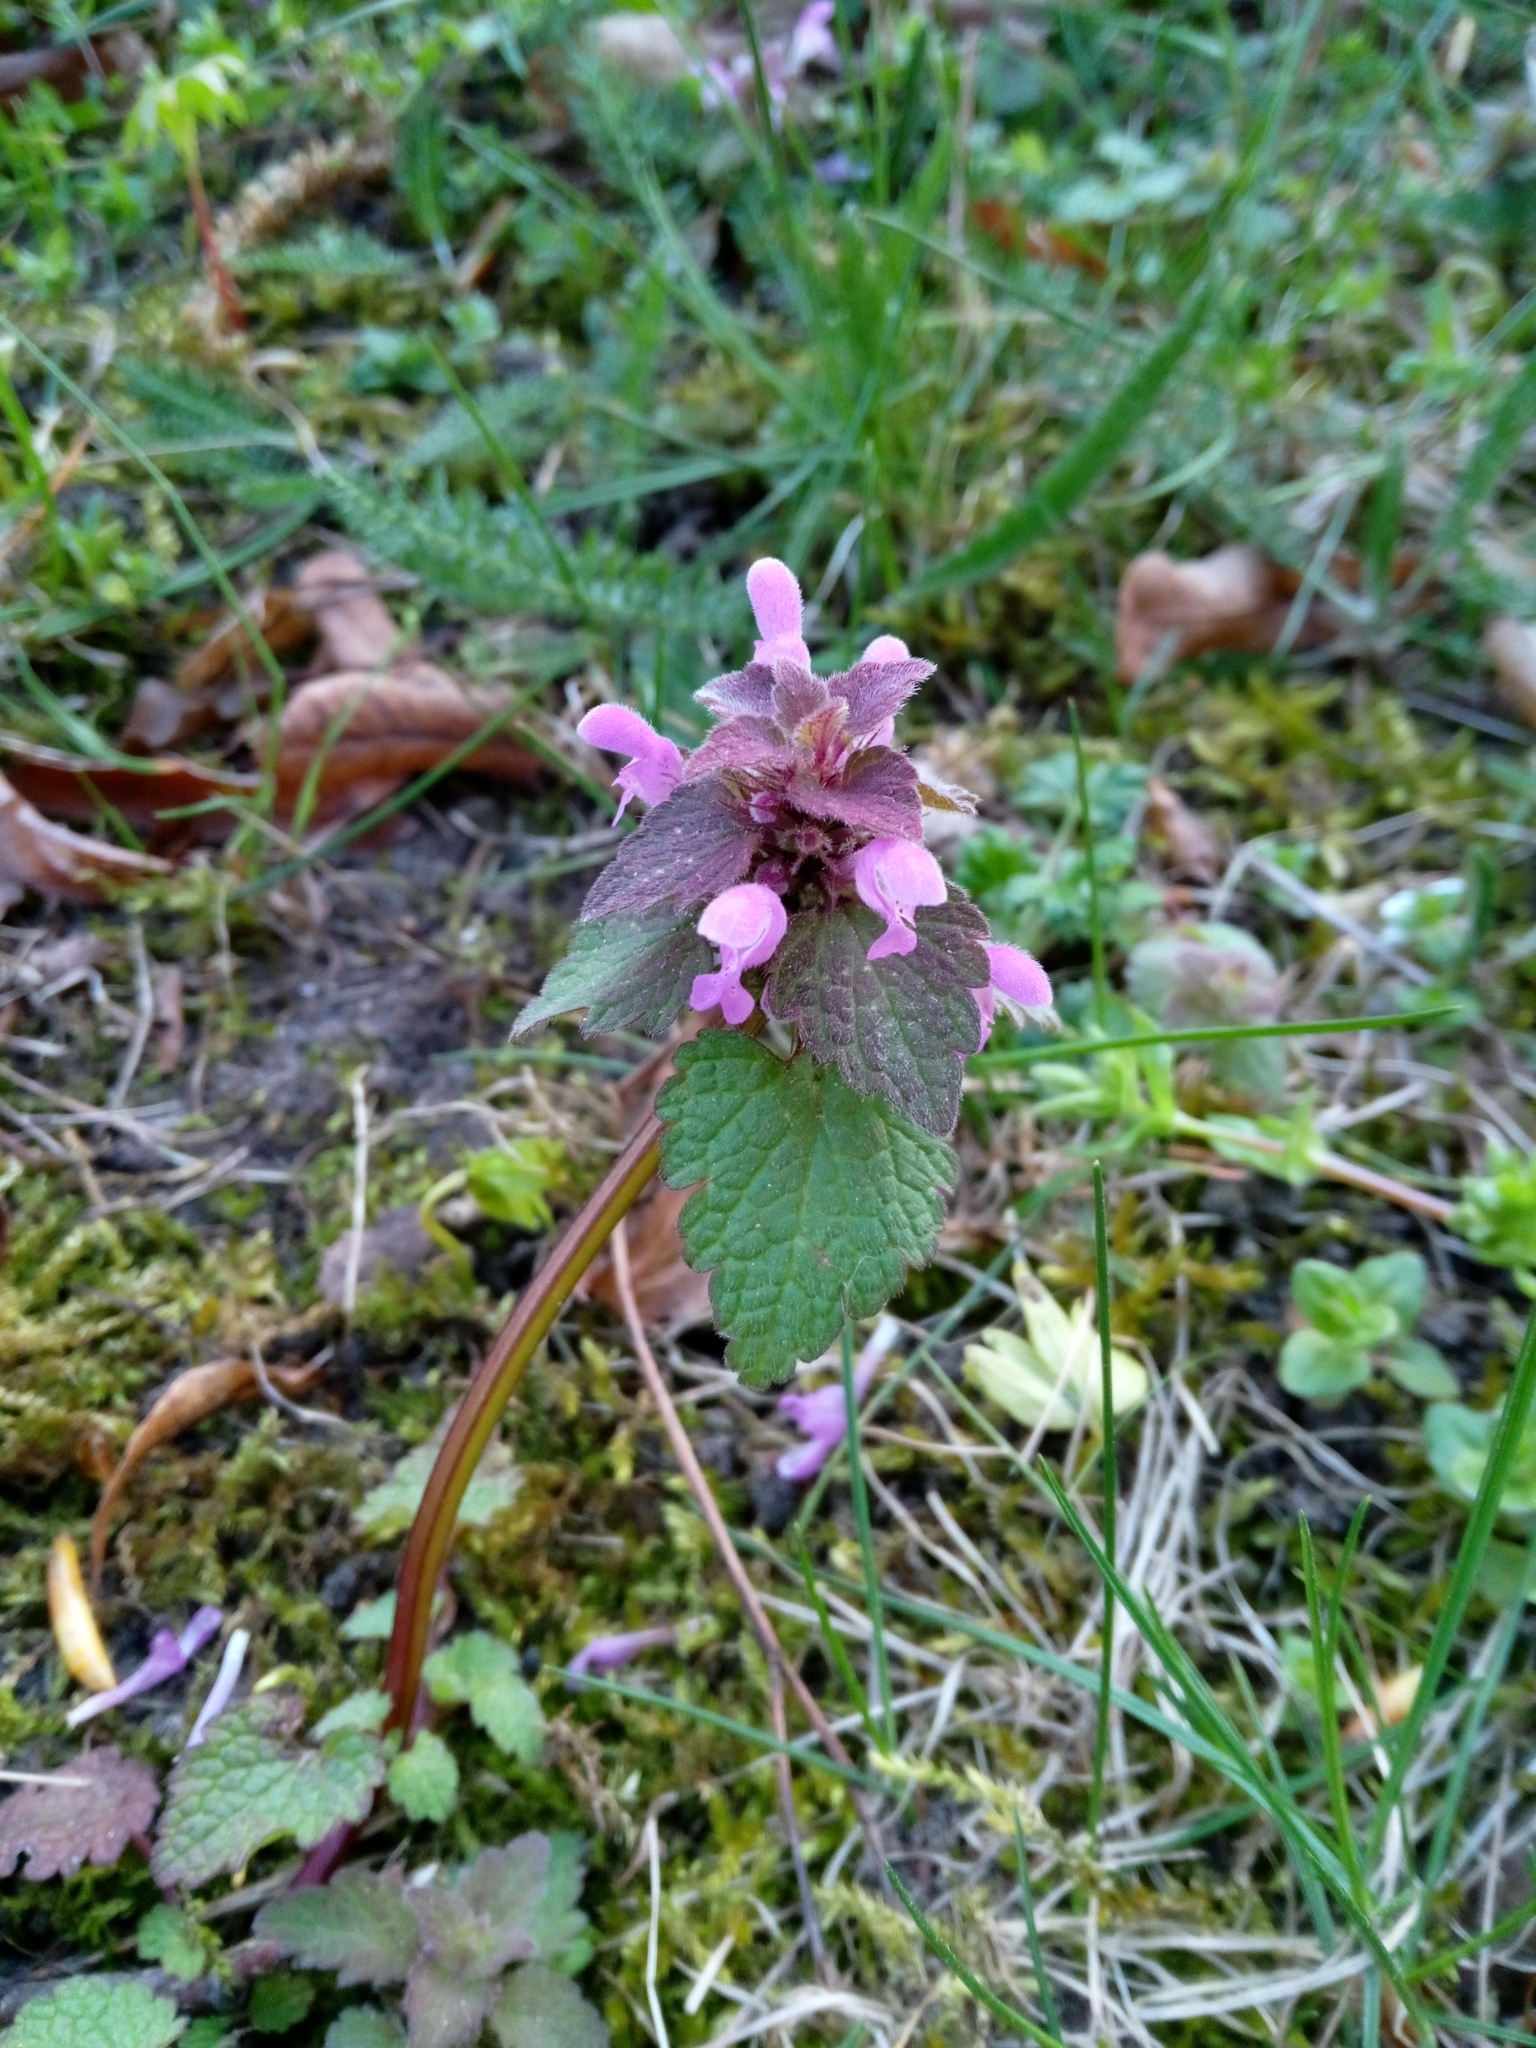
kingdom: Plantae
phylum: Tracheophyta
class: Magnoliopsida
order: Lamiales
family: Lamiaceae
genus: Lamium
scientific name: Lamium purpureum
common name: Red dead-nettle
